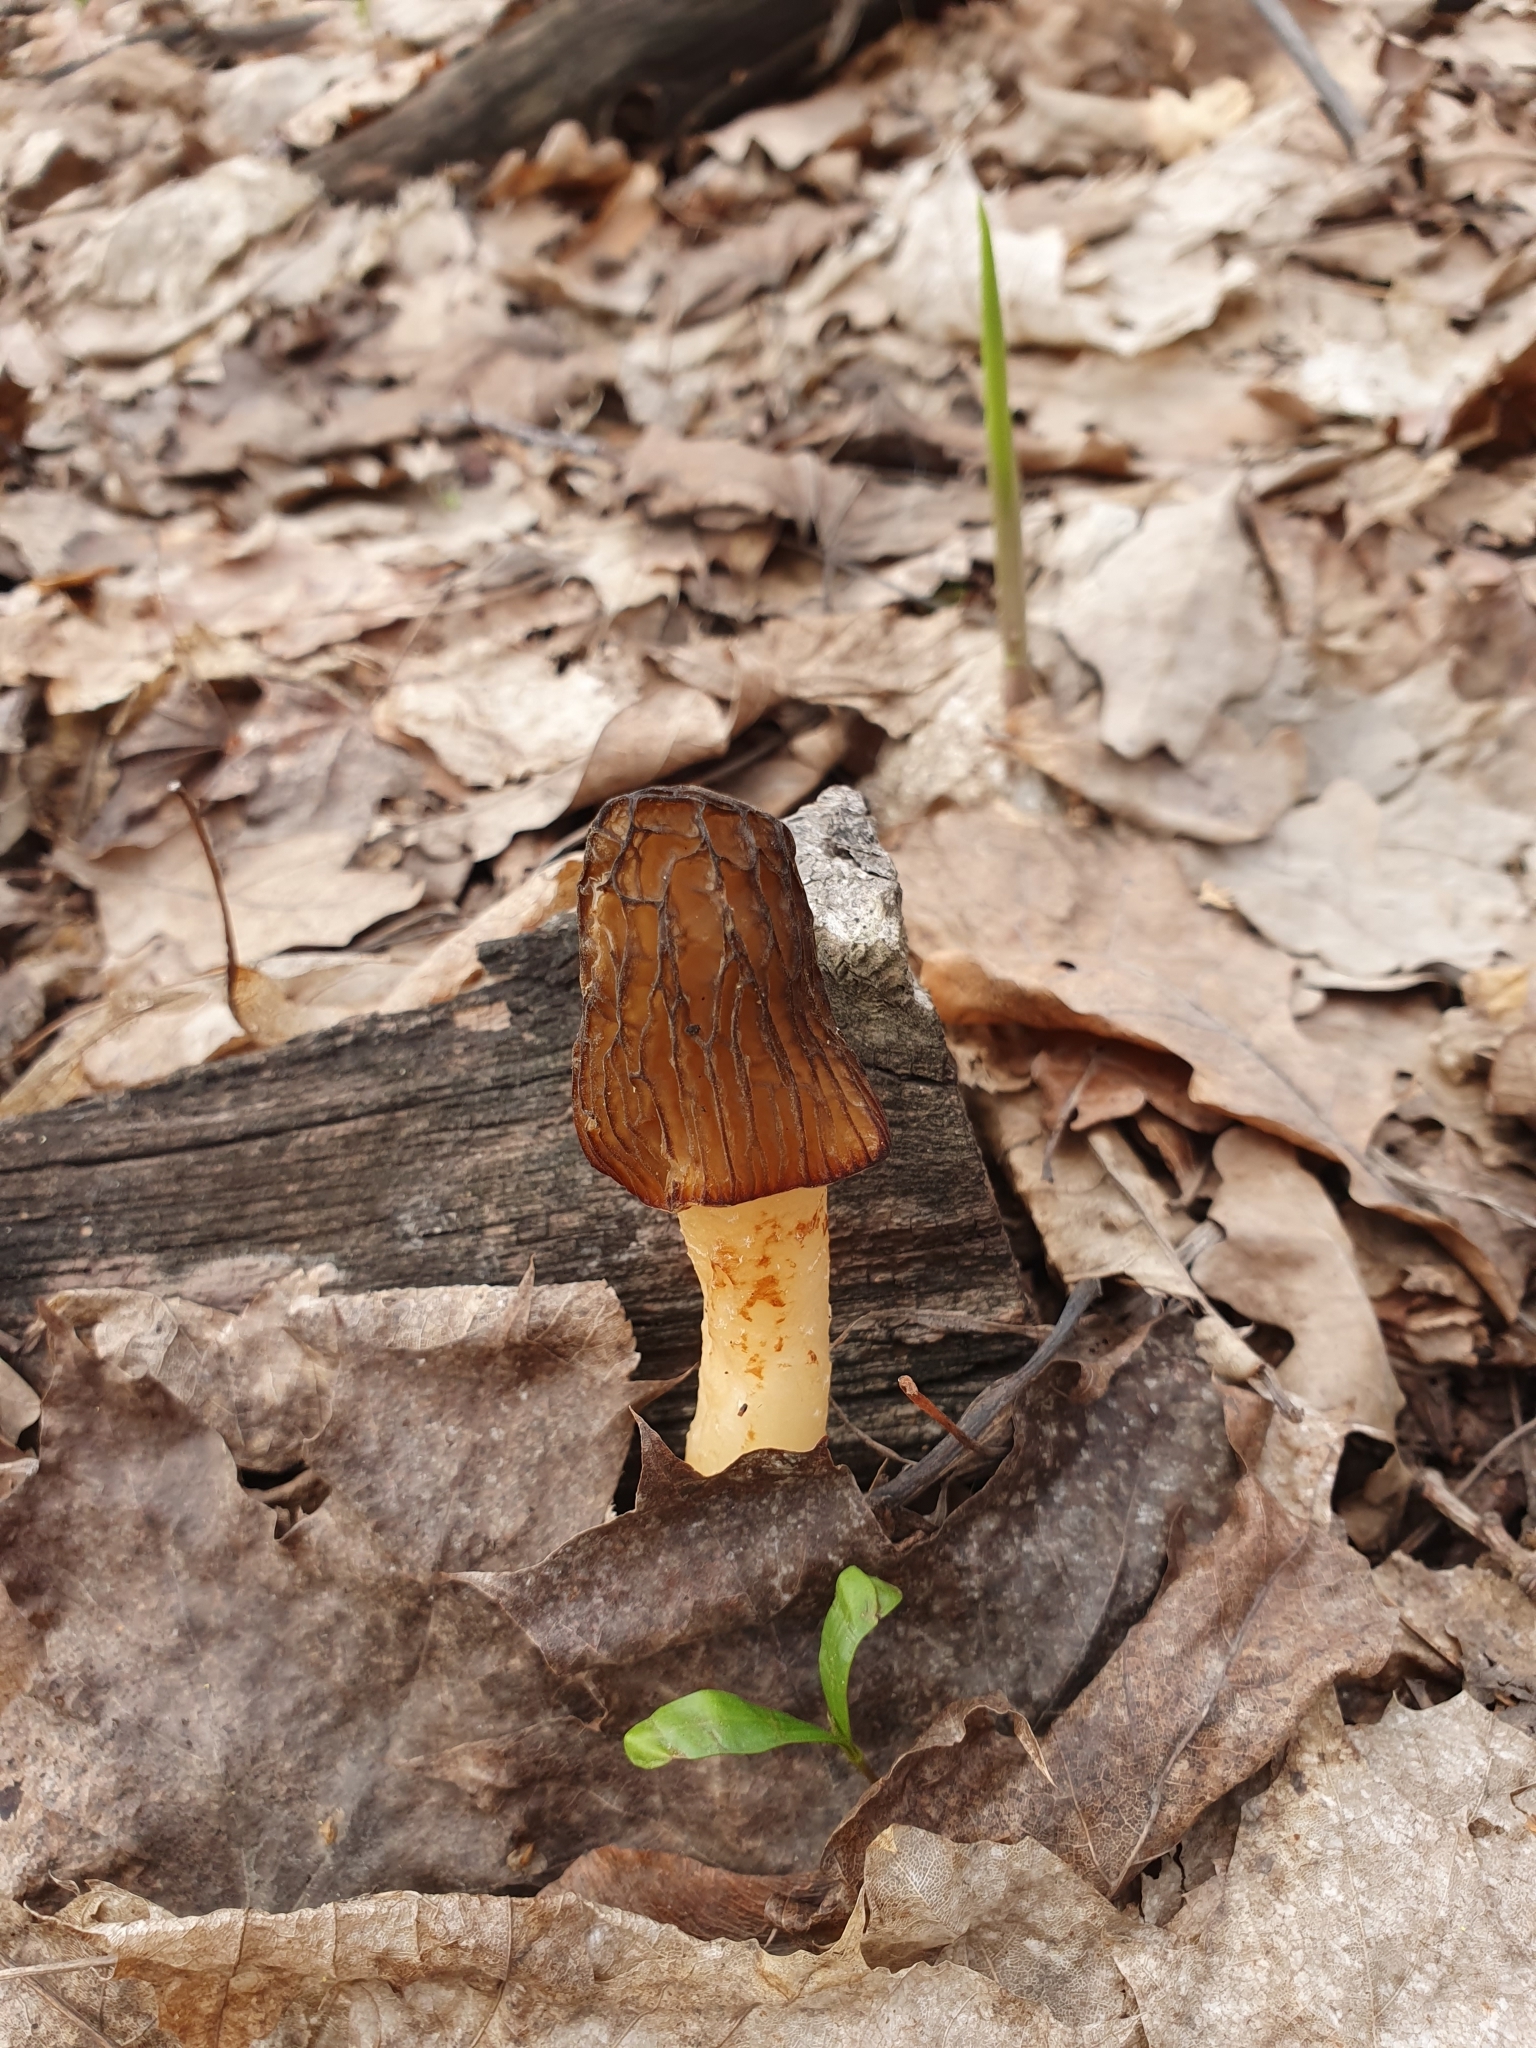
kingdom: Fungi
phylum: Ascomycota
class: Pezizomycetes
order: Pezizales
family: Morchellaceae
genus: Verpa
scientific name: Verpa bohemica
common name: Wrinkled thimble morel
